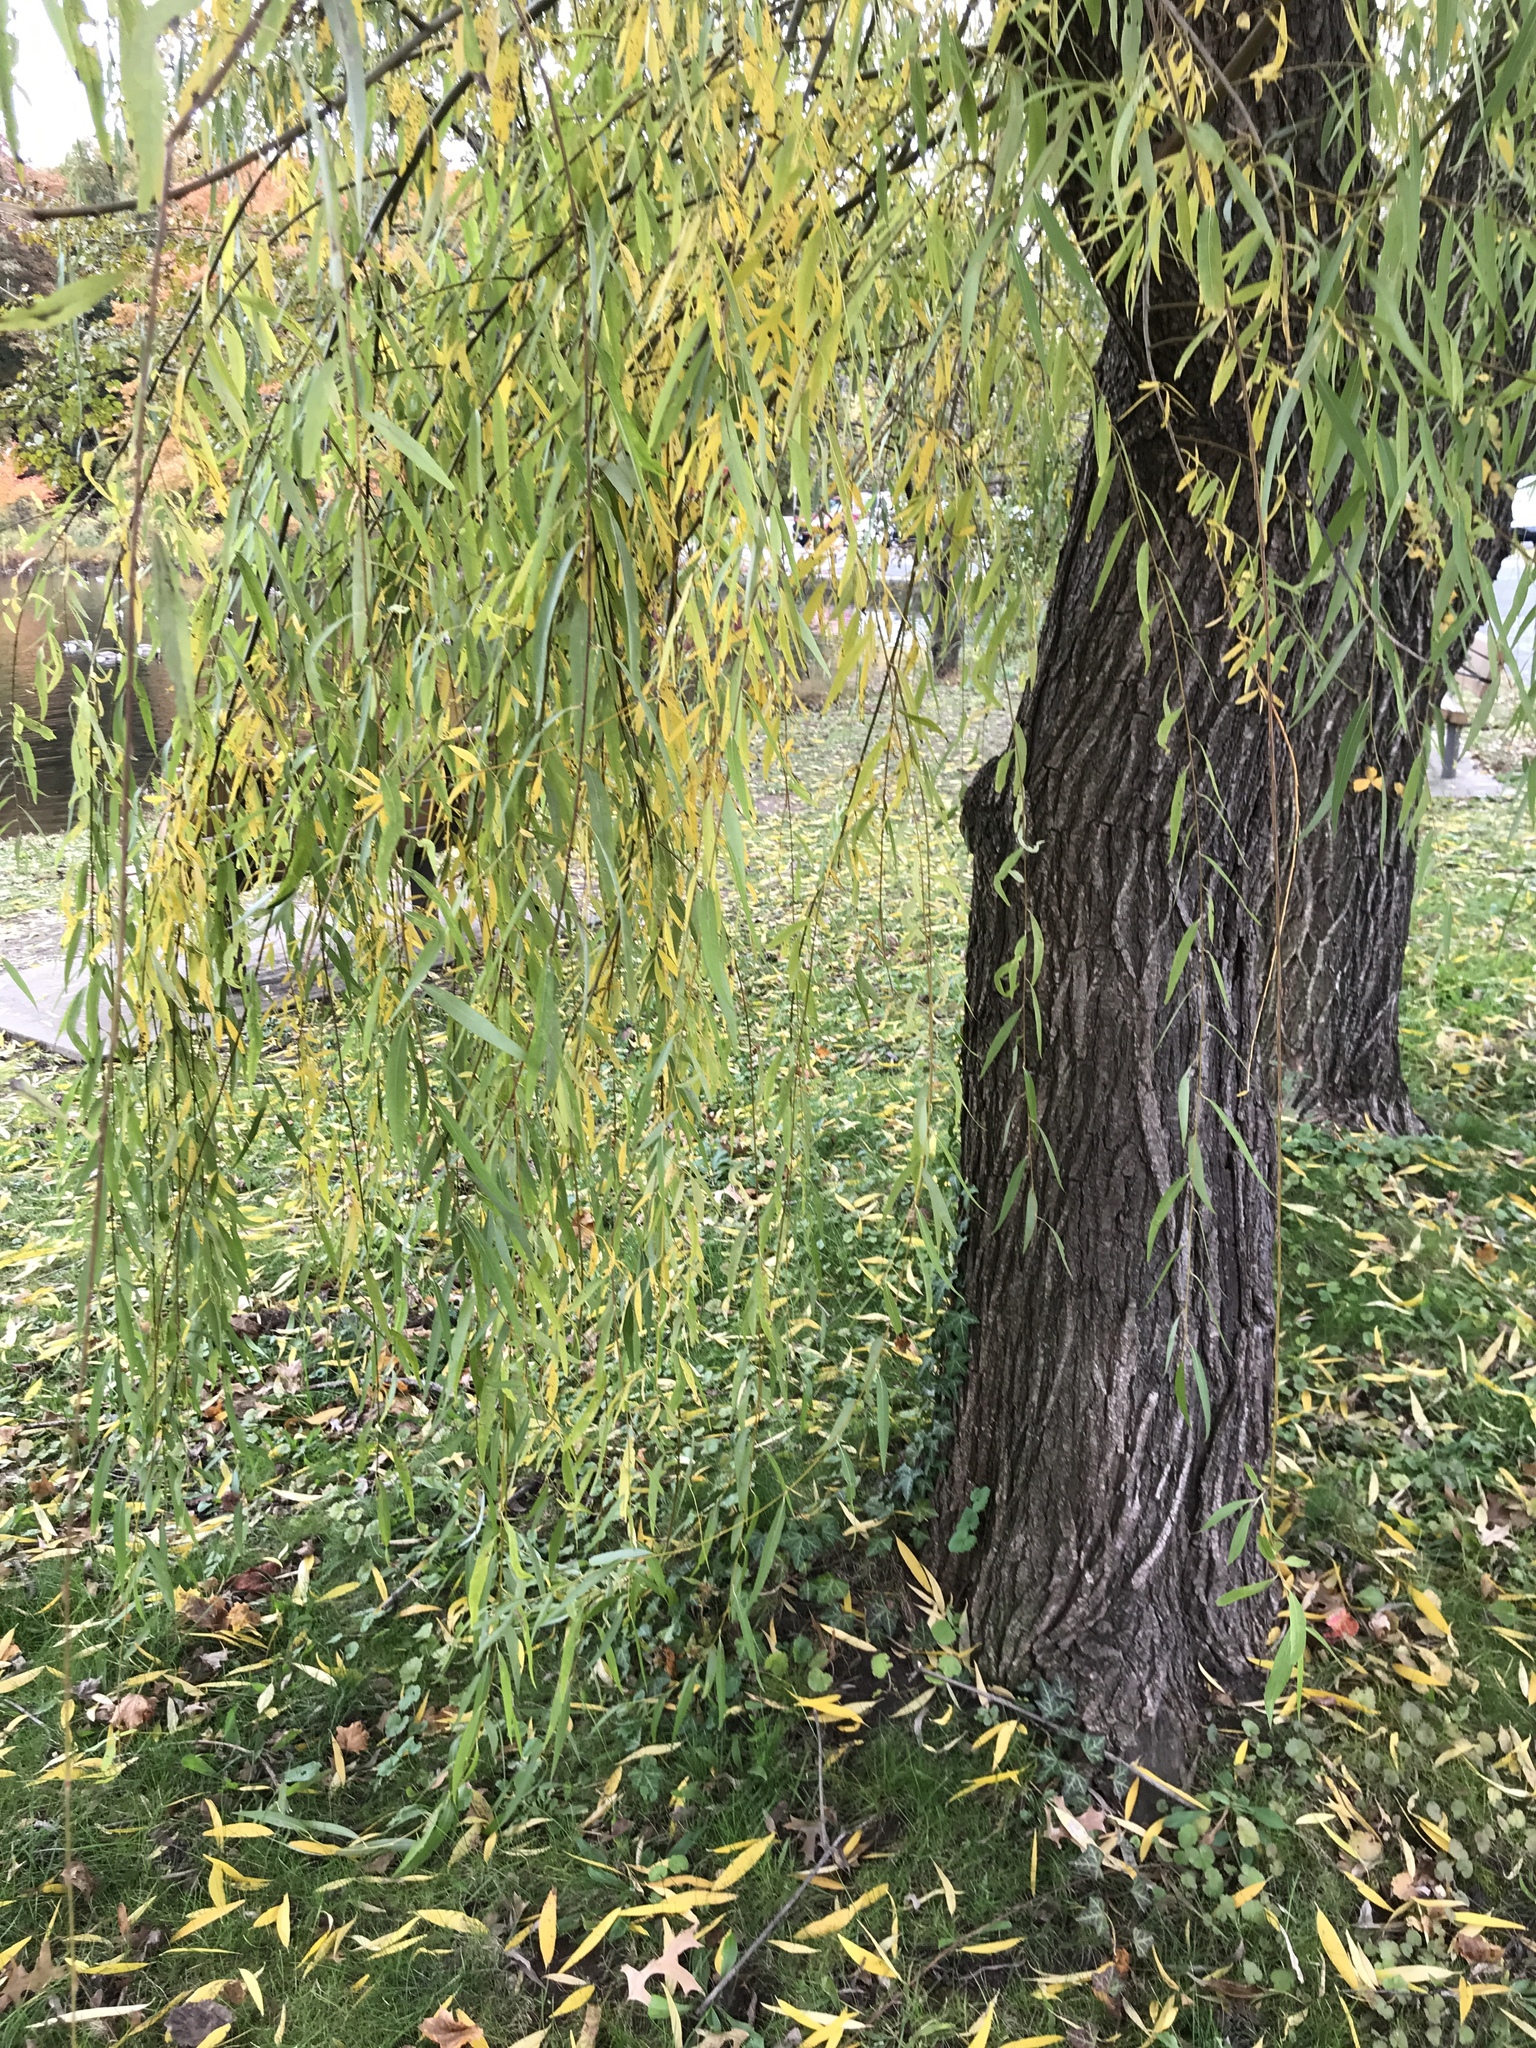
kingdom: Plantae
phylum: Tracheophyta
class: Magnoliopsida
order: Malpighiales
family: Salicaceae
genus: Salix
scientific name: Salix babylonica
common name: Weeping willow
